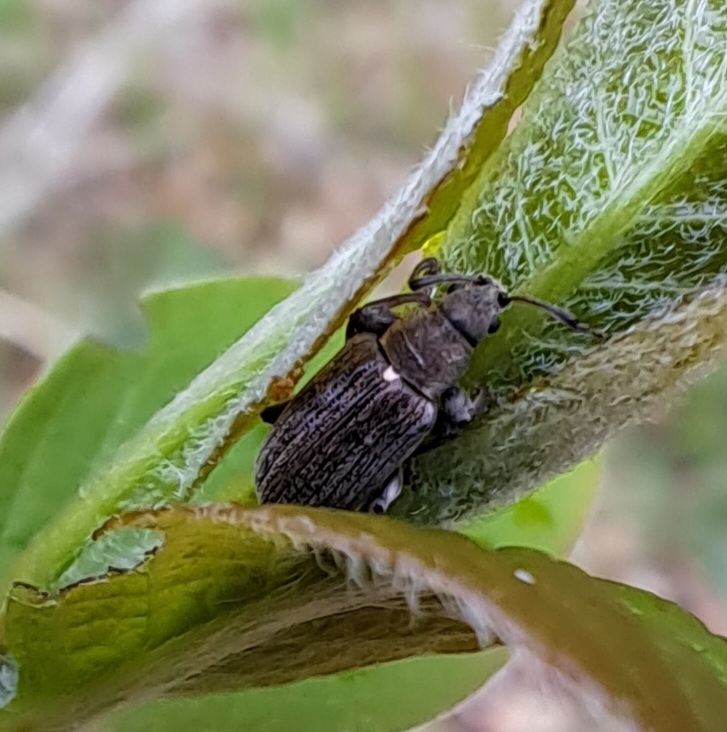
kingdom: Animalia
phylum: Arthropoda
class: Insecta
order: Coleoptera
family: Curculionidae
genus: Phyllobius
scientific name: Phyllobius pyri
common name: Common leaf weevil
